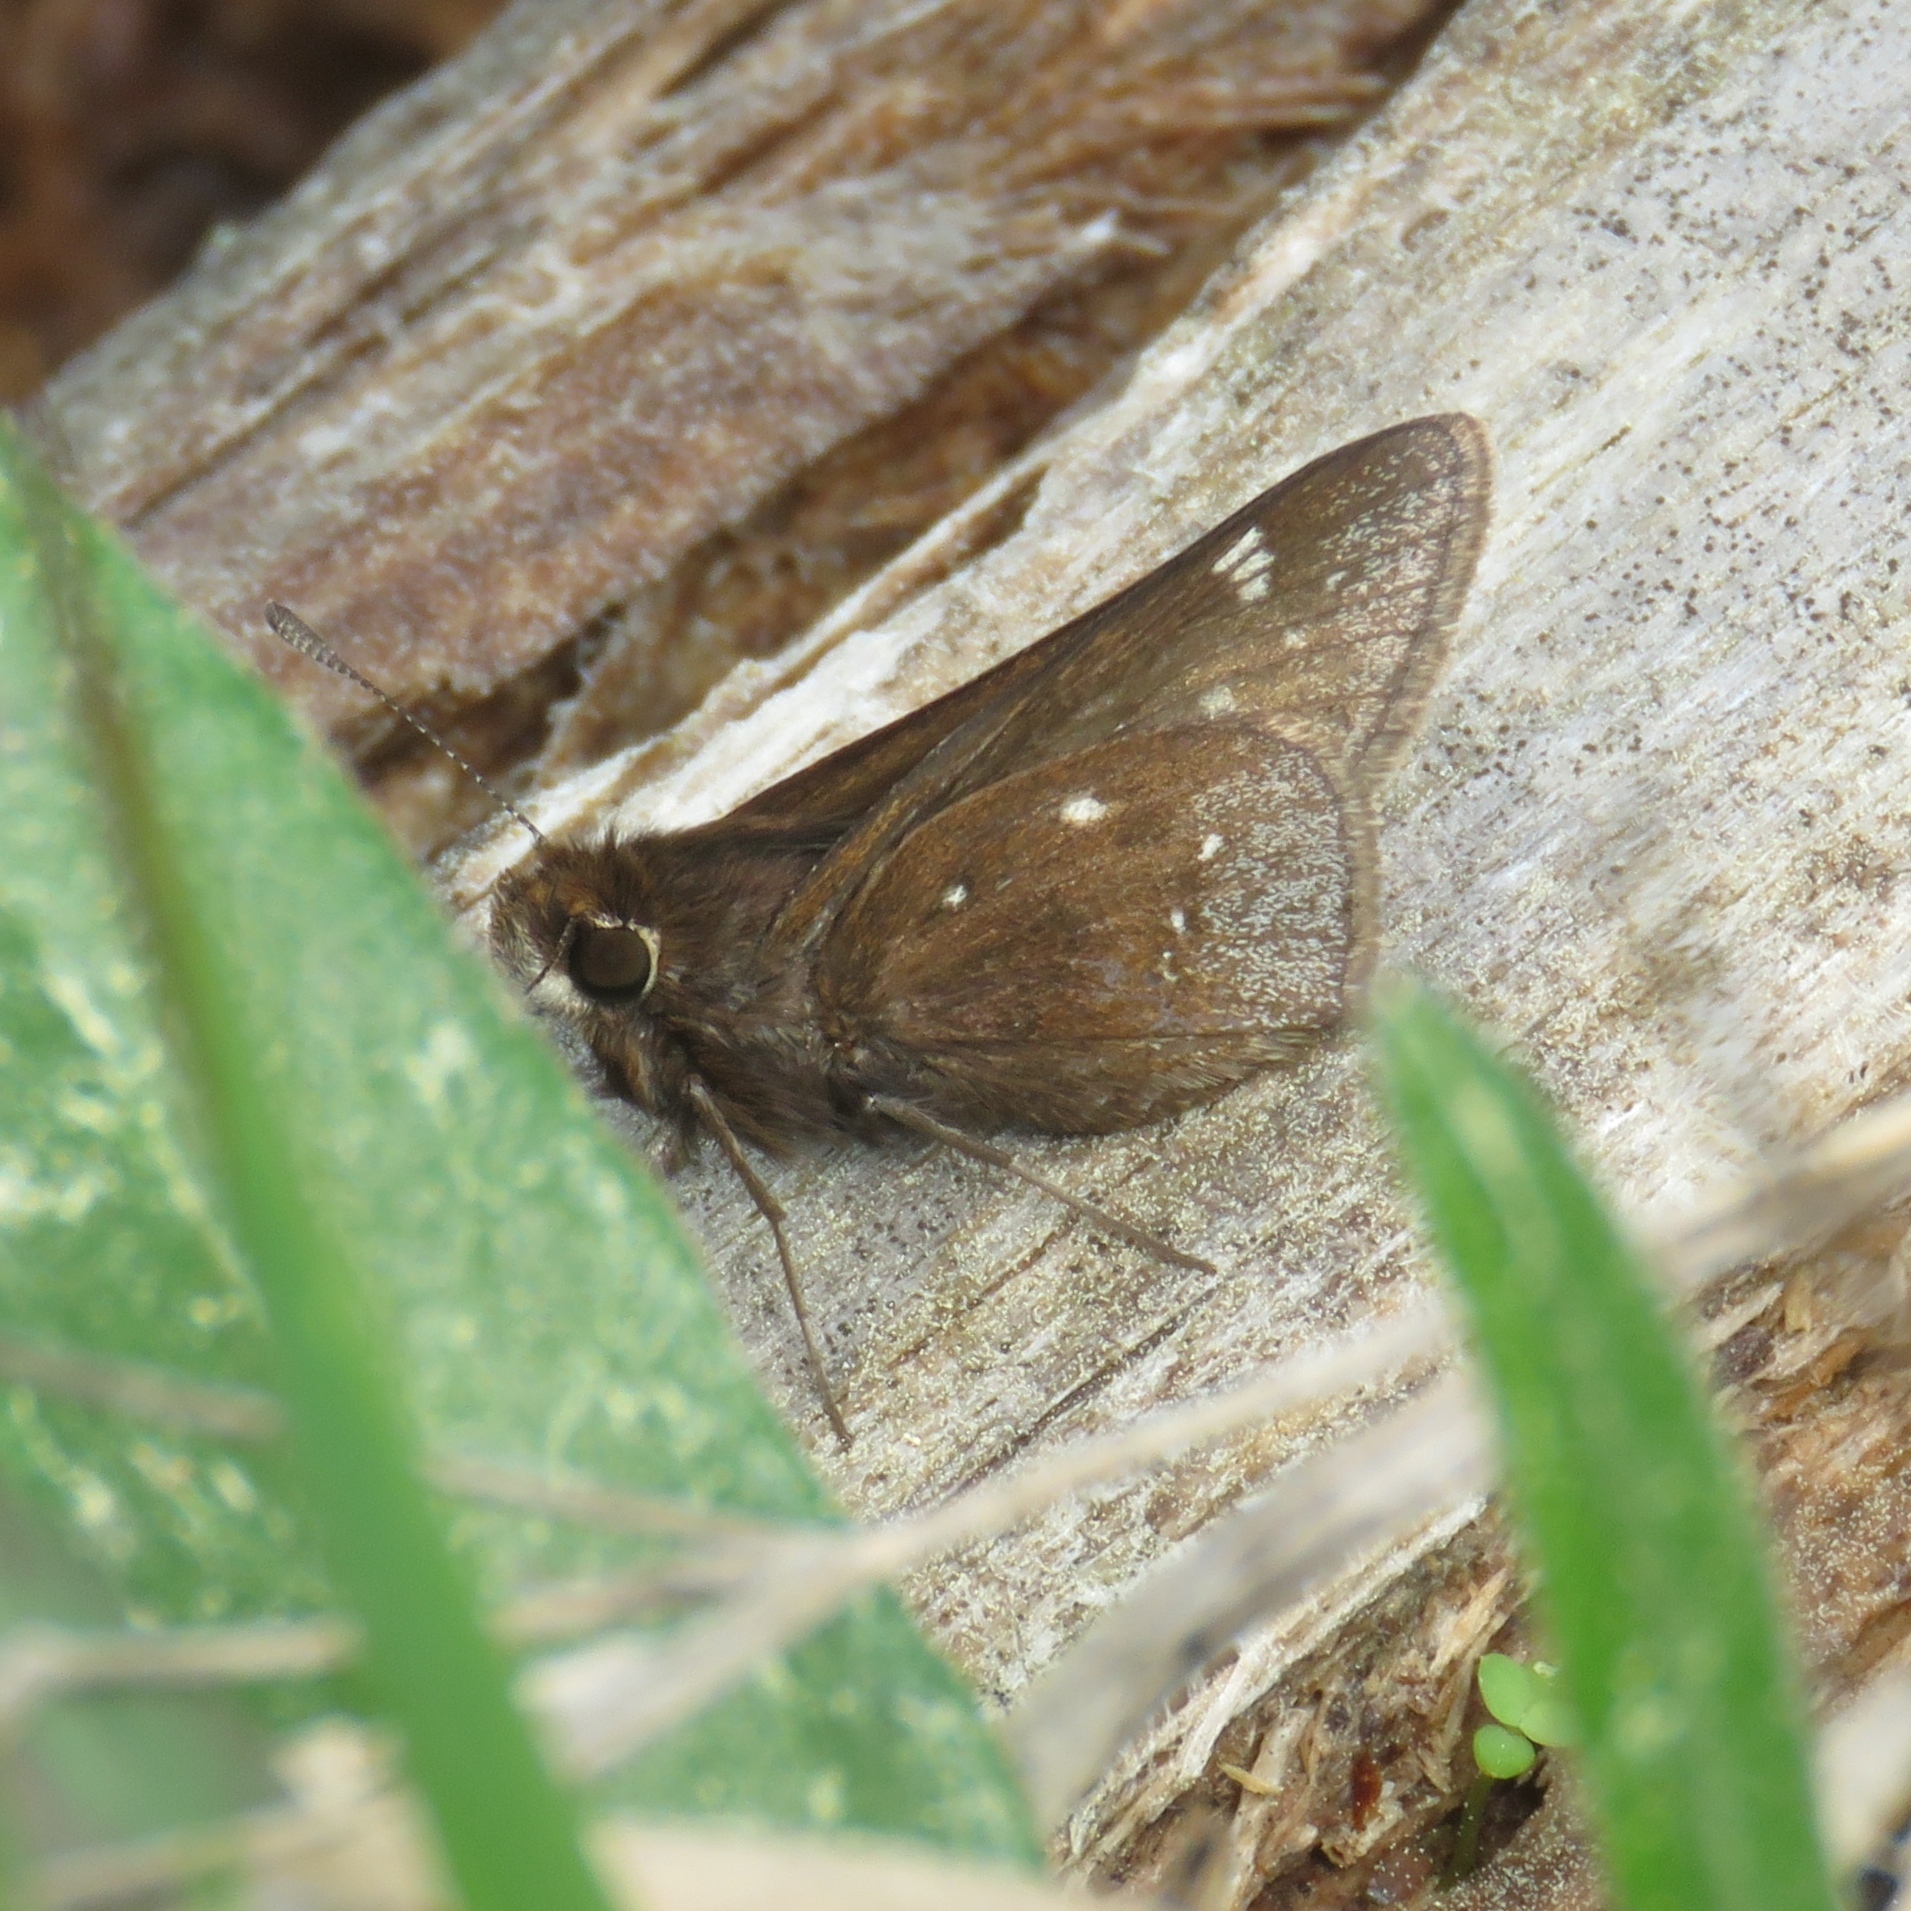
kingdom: Animalia
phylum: Arthropoda
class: Insecta
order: Lepidoptera
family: Hesperiidae
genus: Atrytonopsis
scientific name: Atrytonopsis hianna
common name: Dusted skipper
